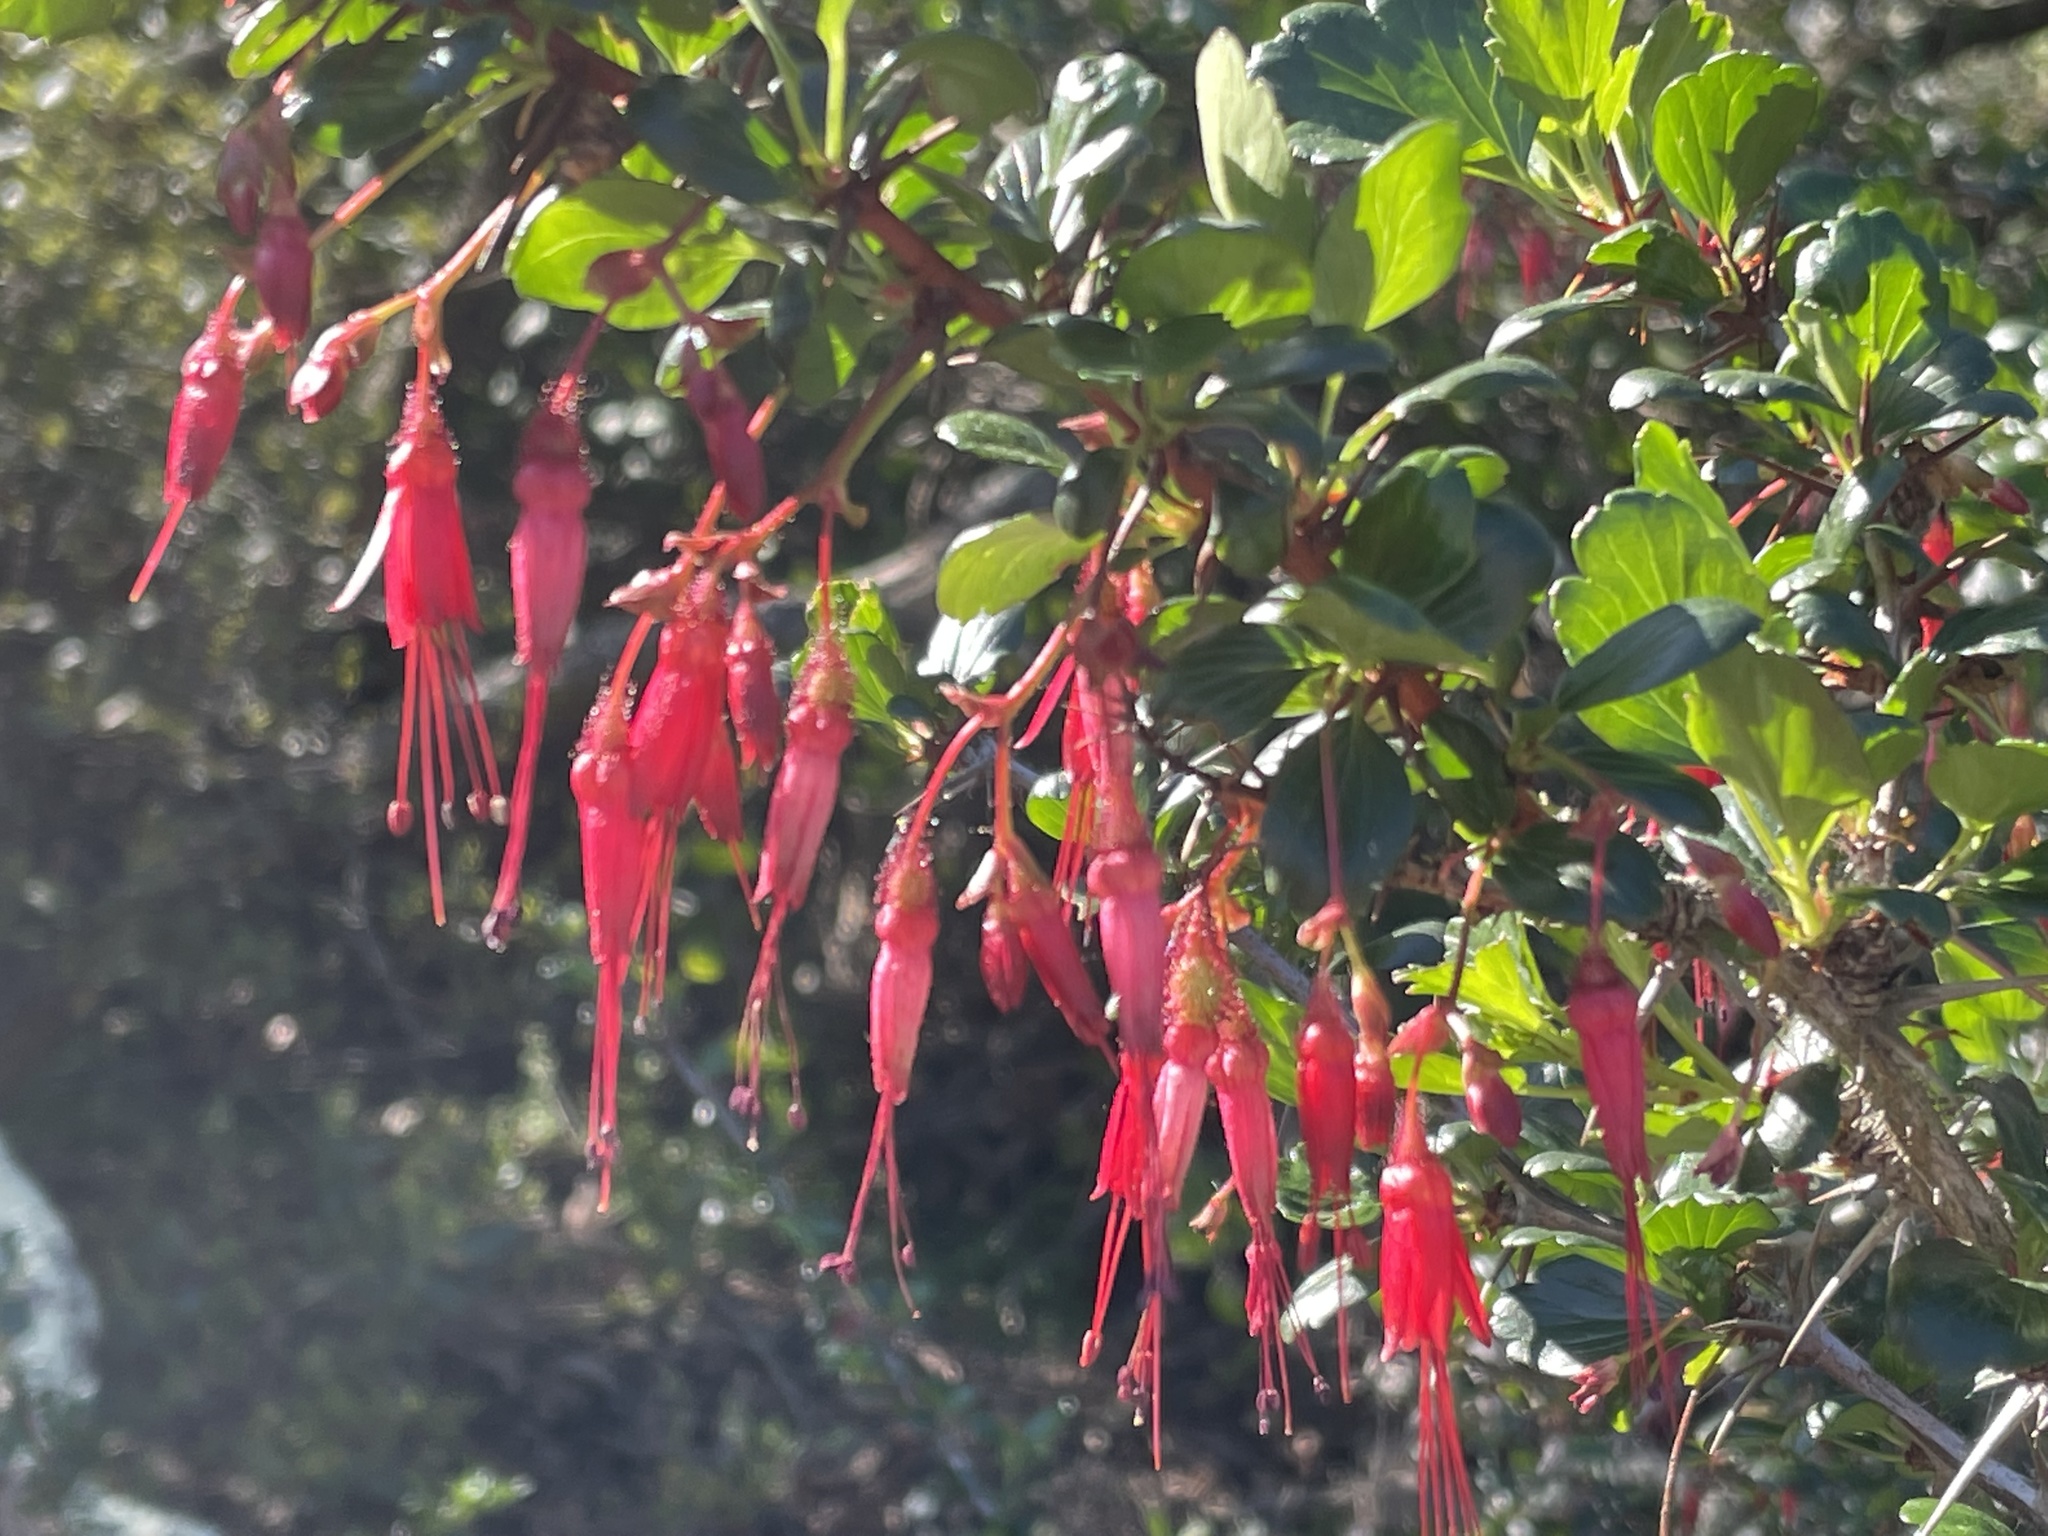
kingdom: Plantae
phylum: Tracheophyta
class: Magnoliopsida
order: Saxifragales
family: Grossulariaceae
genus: Ribes
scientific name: Ribes speciosum
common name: Fuchsia-flower gooseberry
